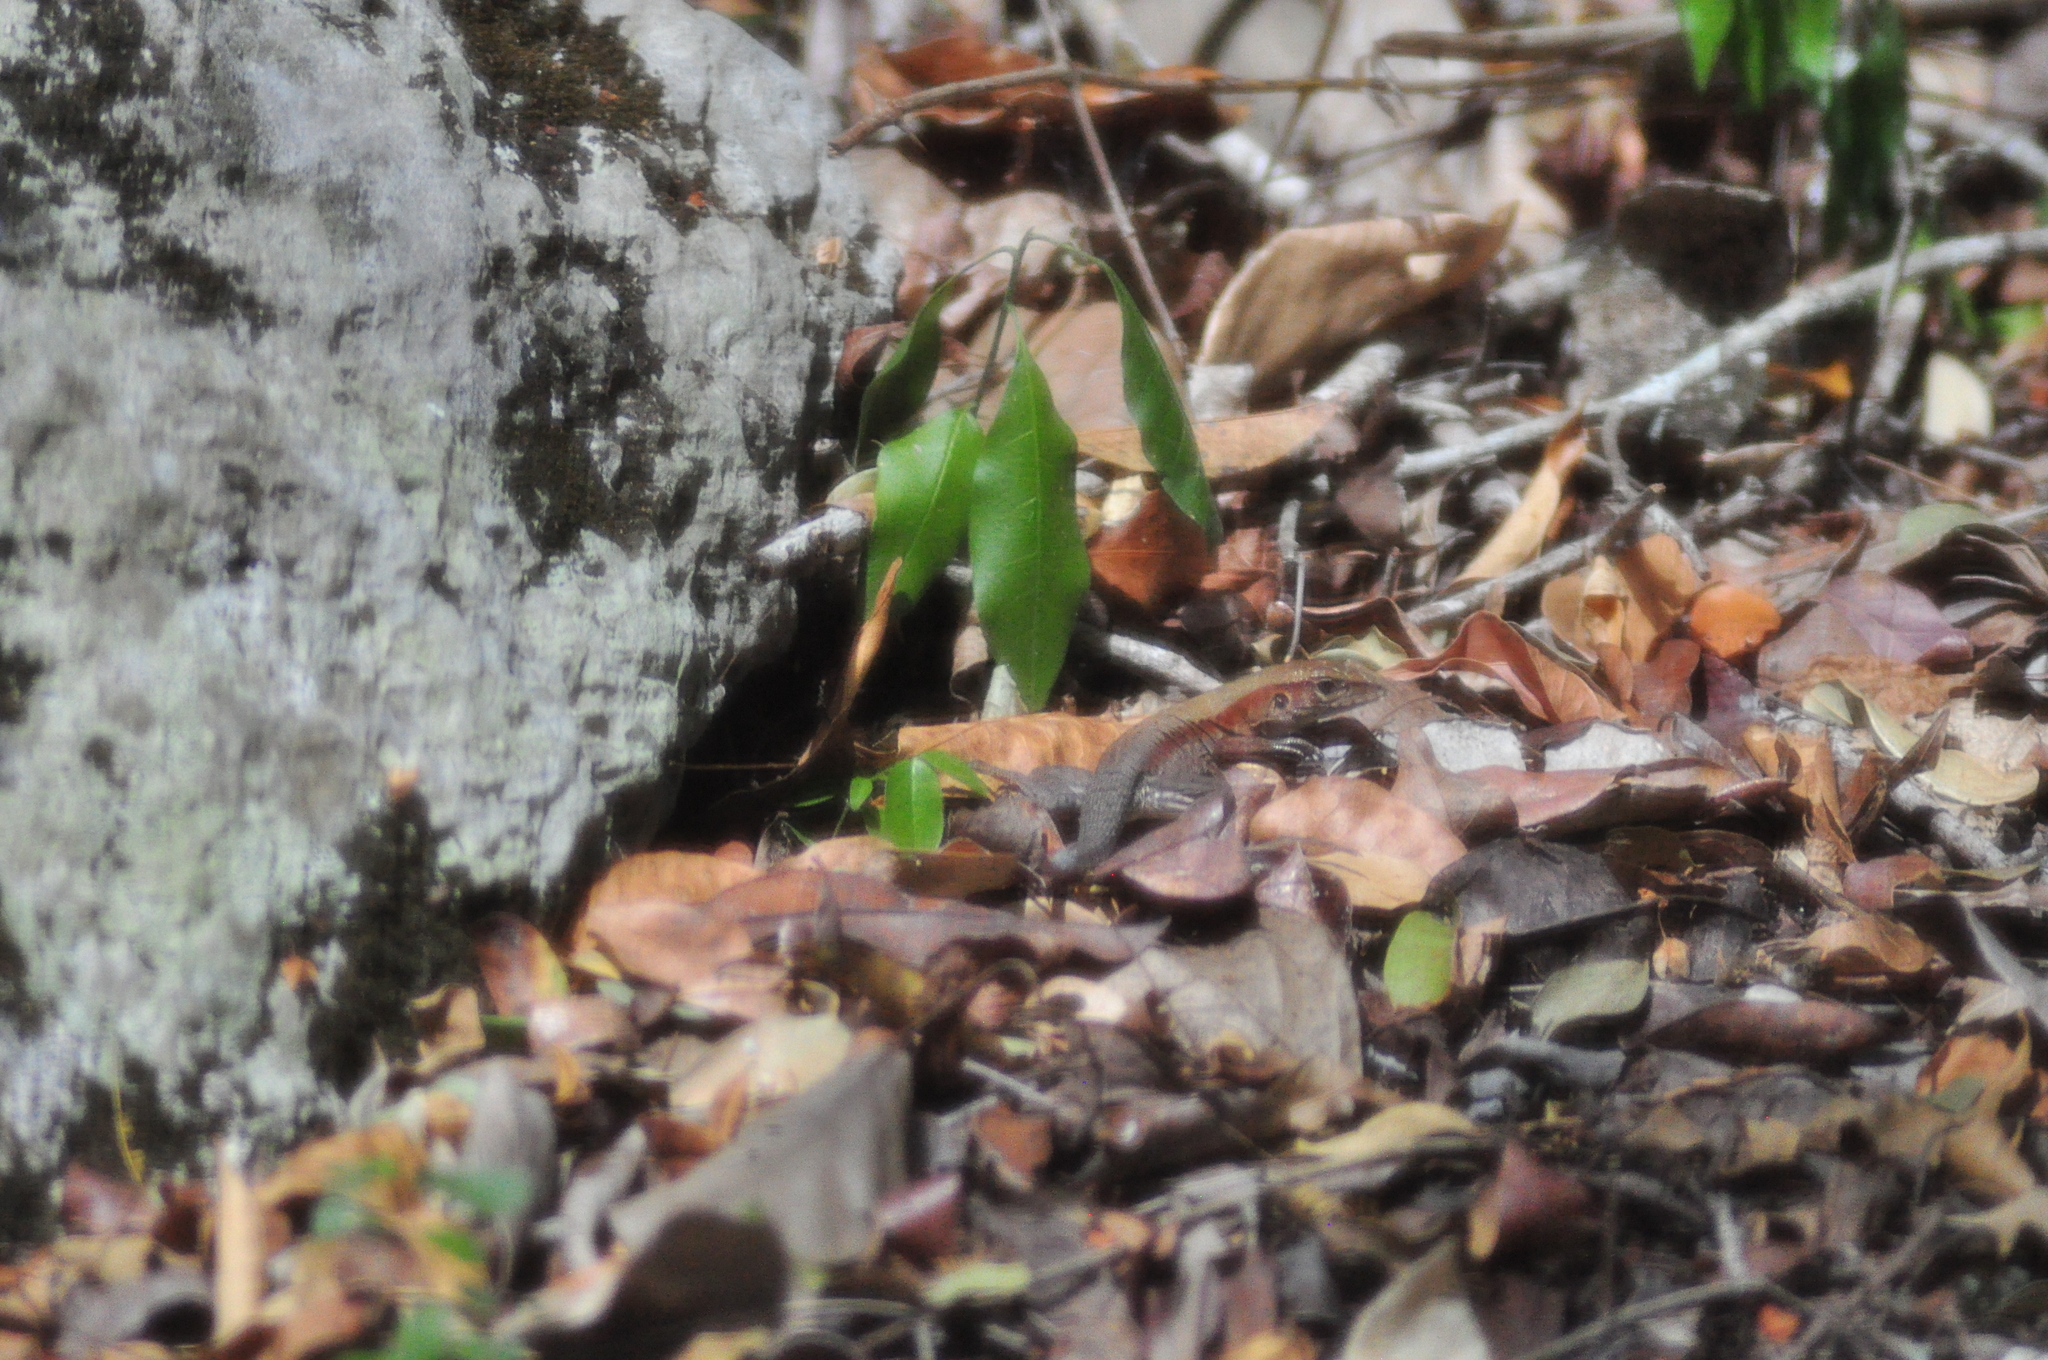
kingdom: Animalia
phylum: Chordata
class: Squamata
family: Teiidae
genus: Holcosus
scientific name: Holcosus undulatus
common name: Rainbow ameiva
